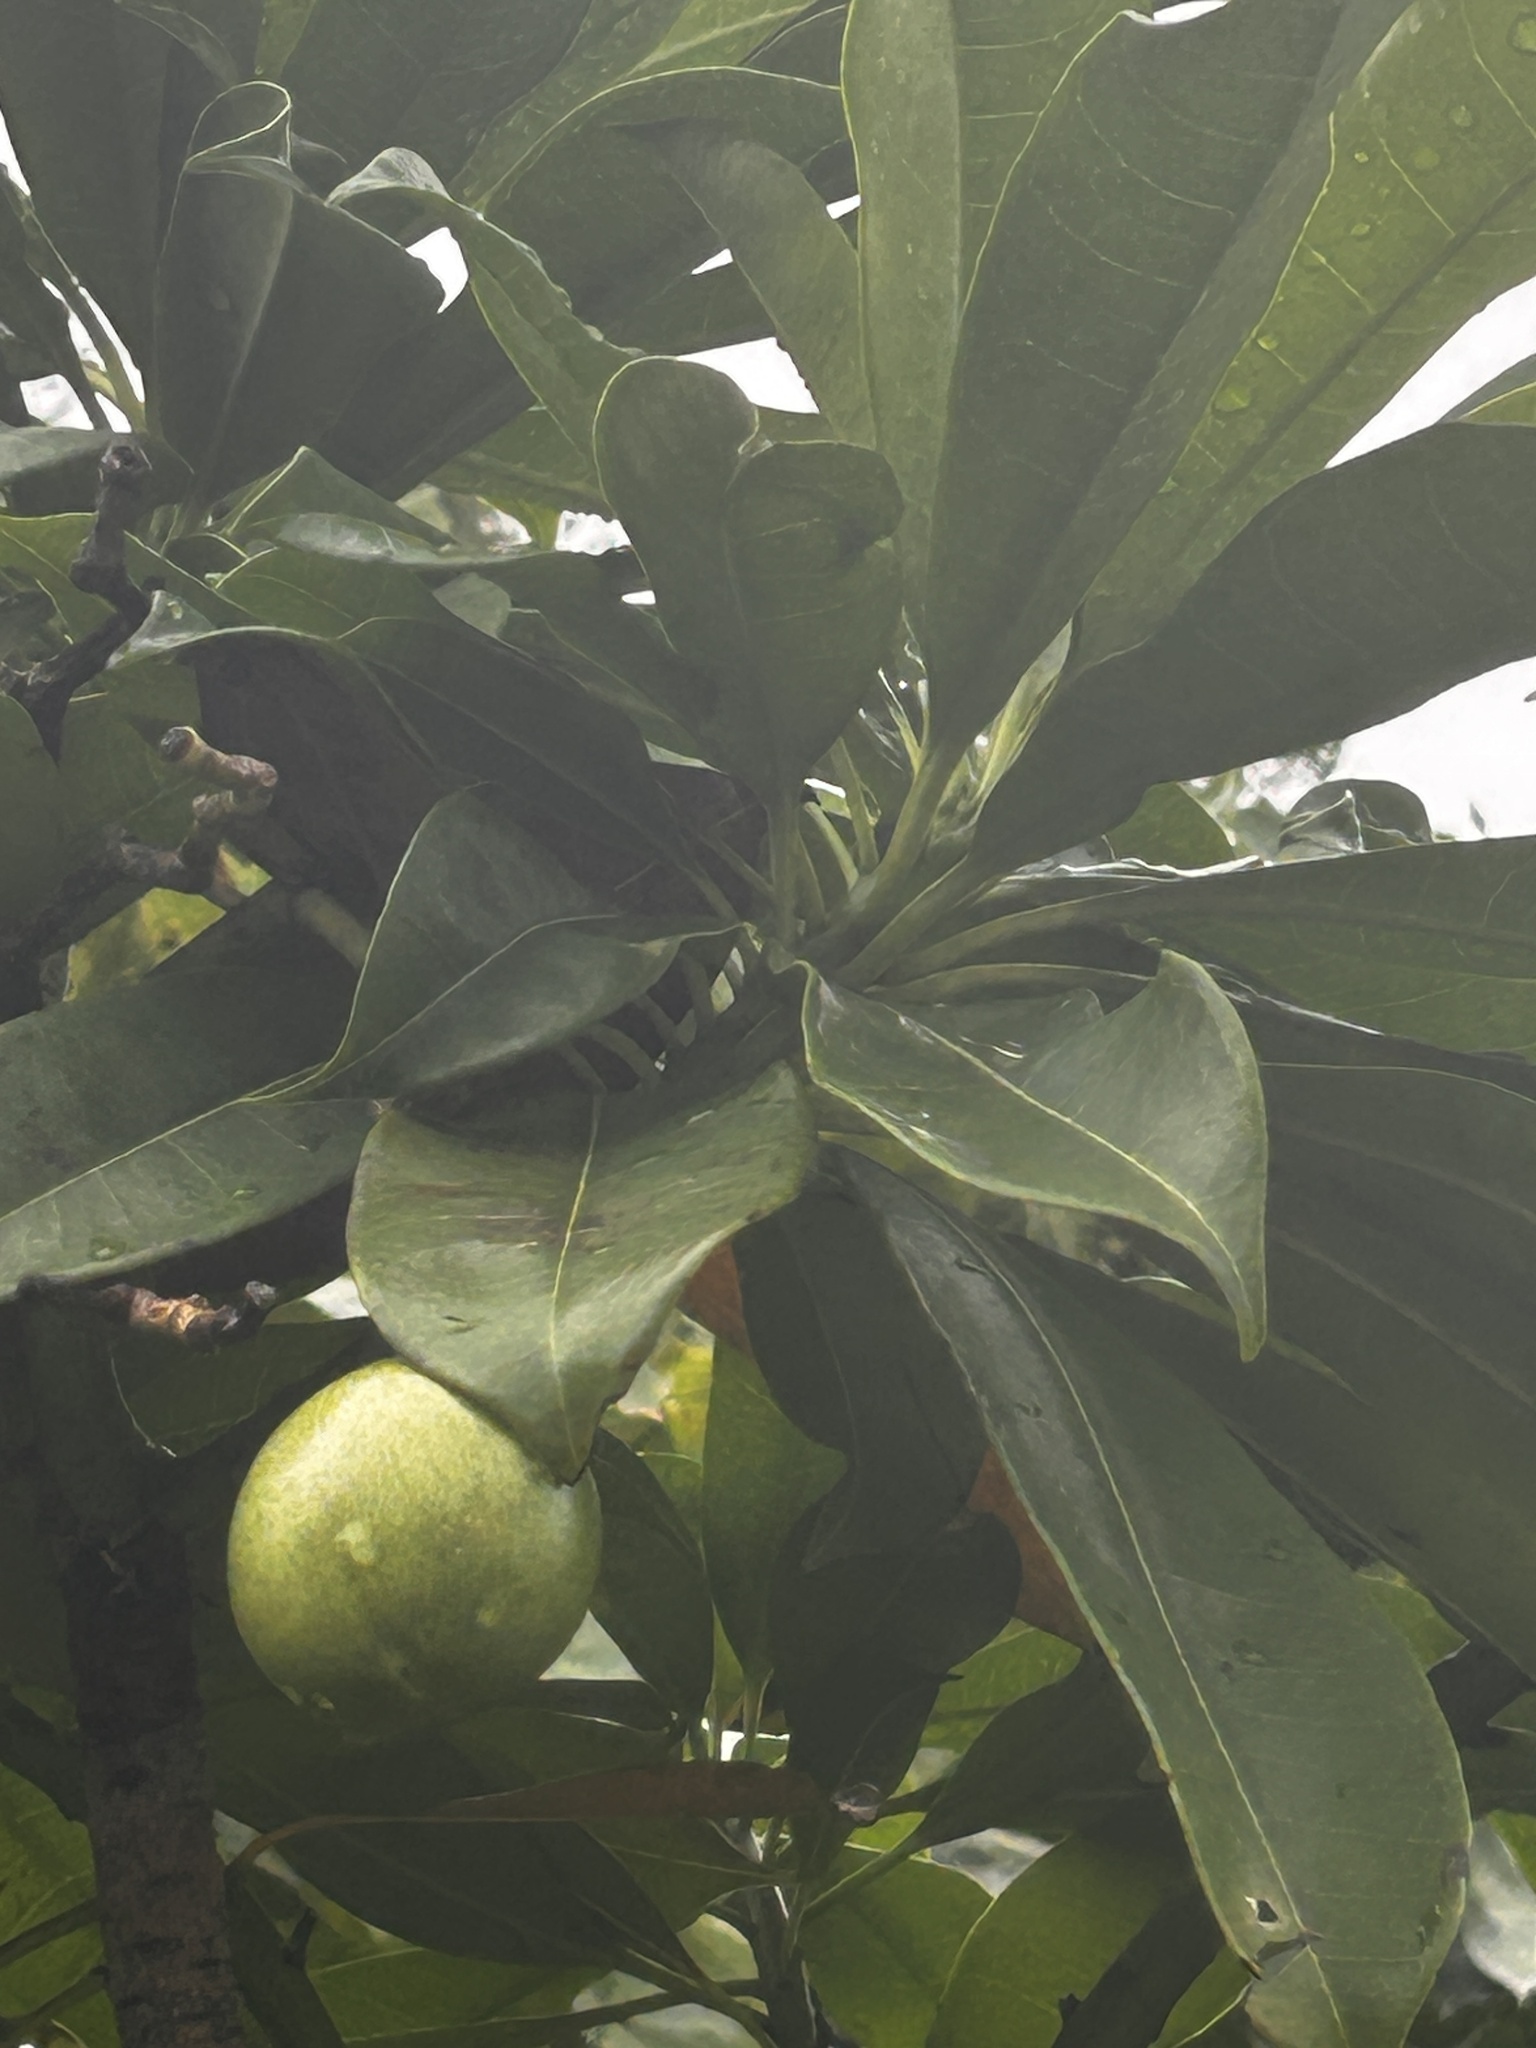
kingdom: Plantae
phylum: Tracheophyta
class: Magnoliopsida
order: Gentianales
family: Apocynaceae
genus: Cerbera
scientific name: Cerbera manghas
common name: Reva
